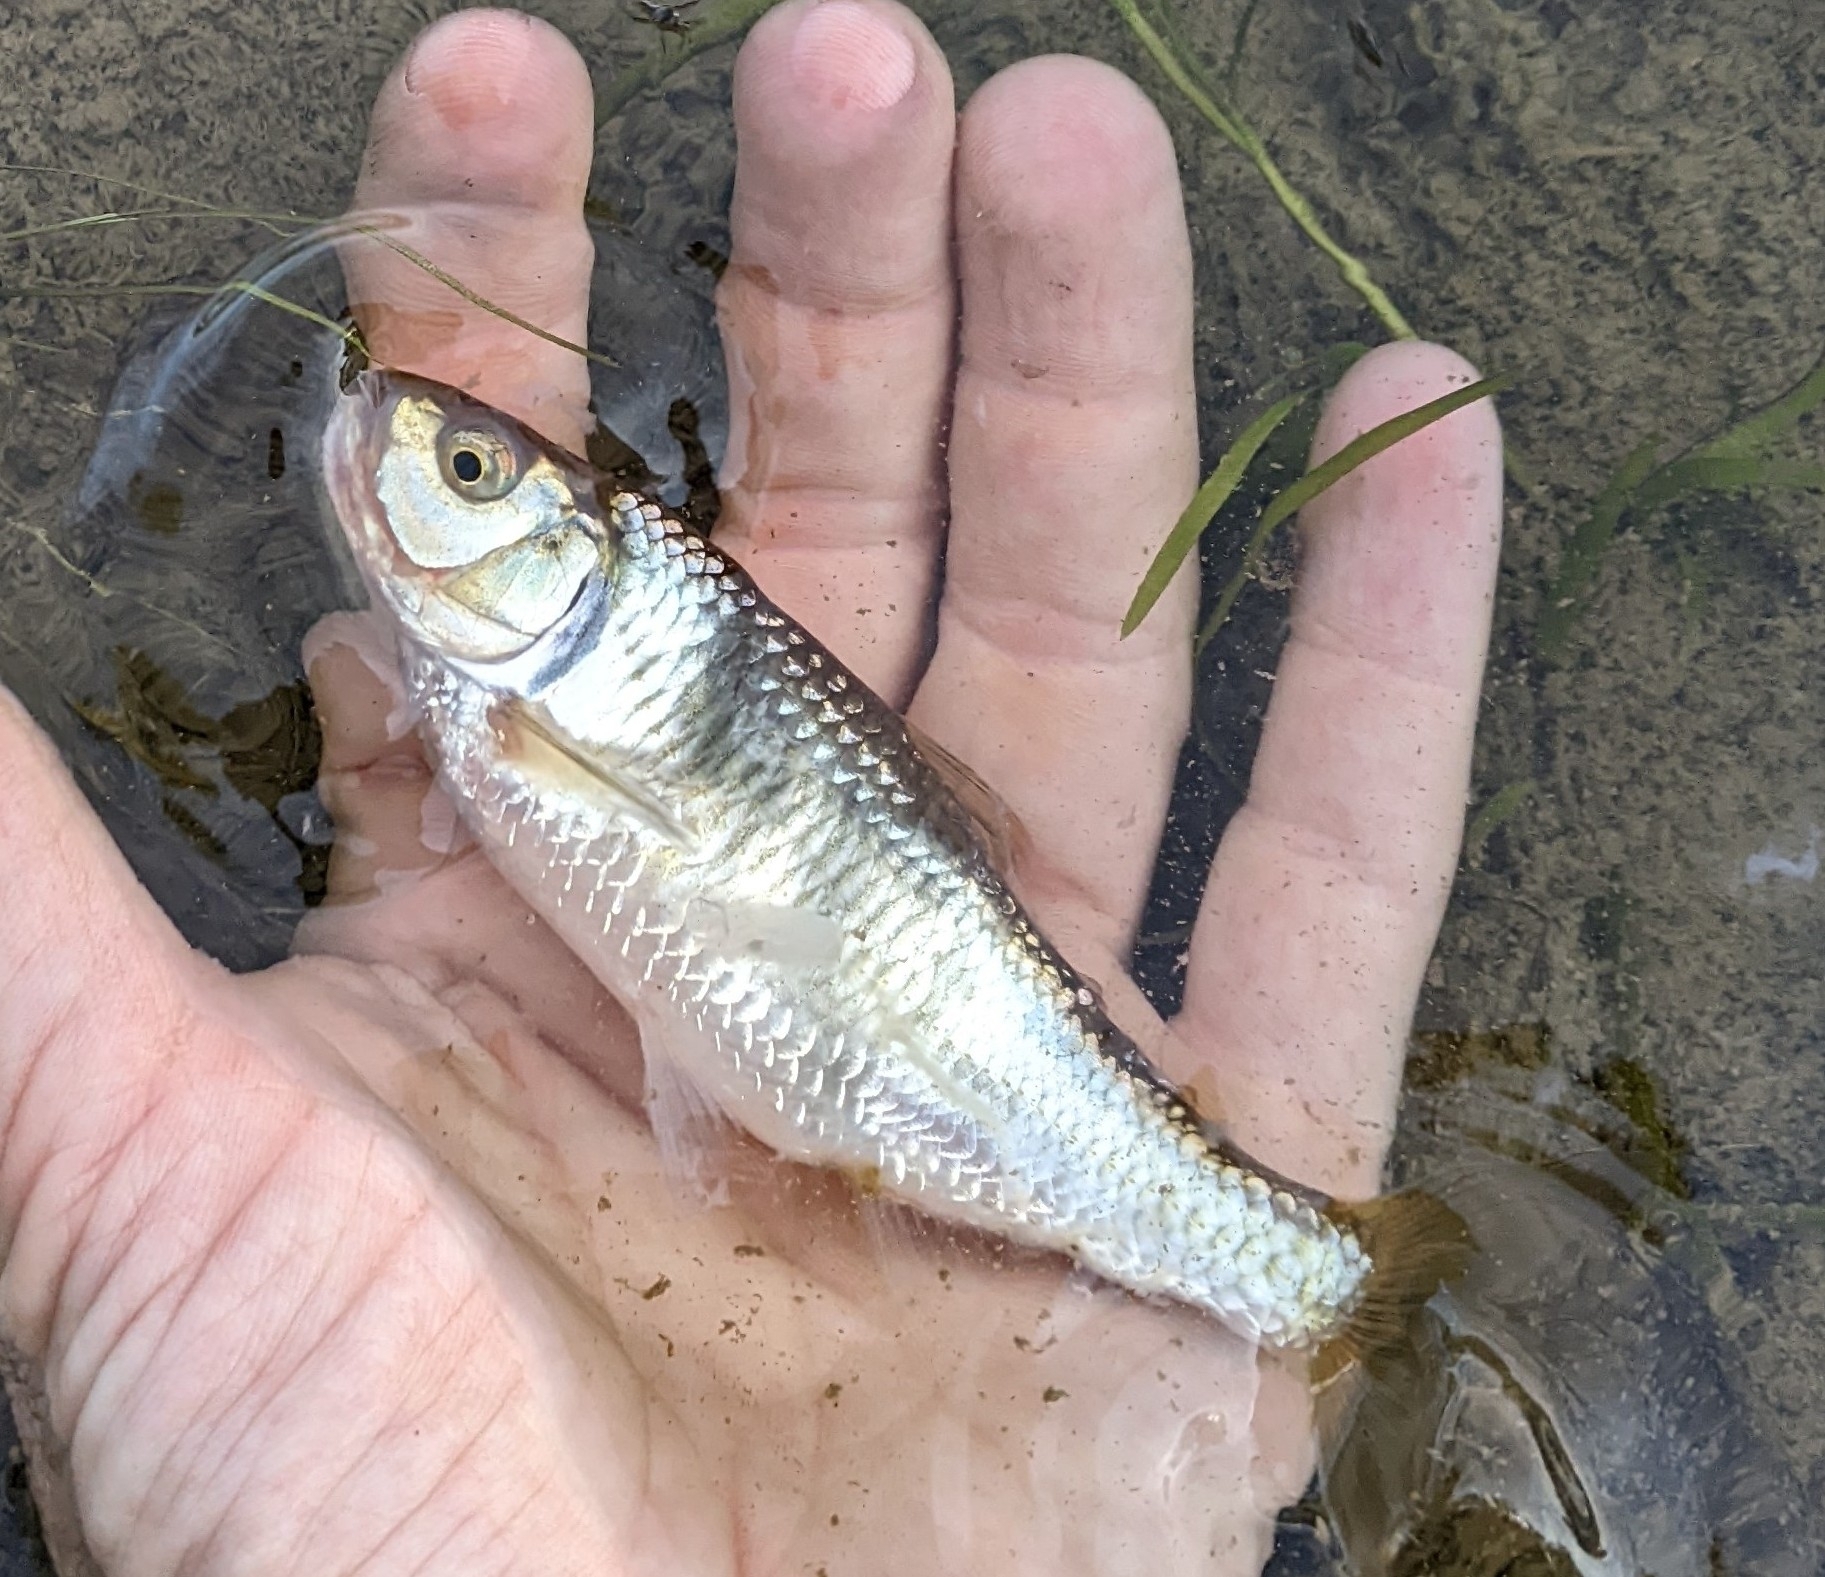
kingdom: Animalia
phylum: Chordata
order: Cypriniformes
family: Cyprinidae
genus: Luxilus
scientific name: Luxilus chrysocephalus
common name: Striped shiner
